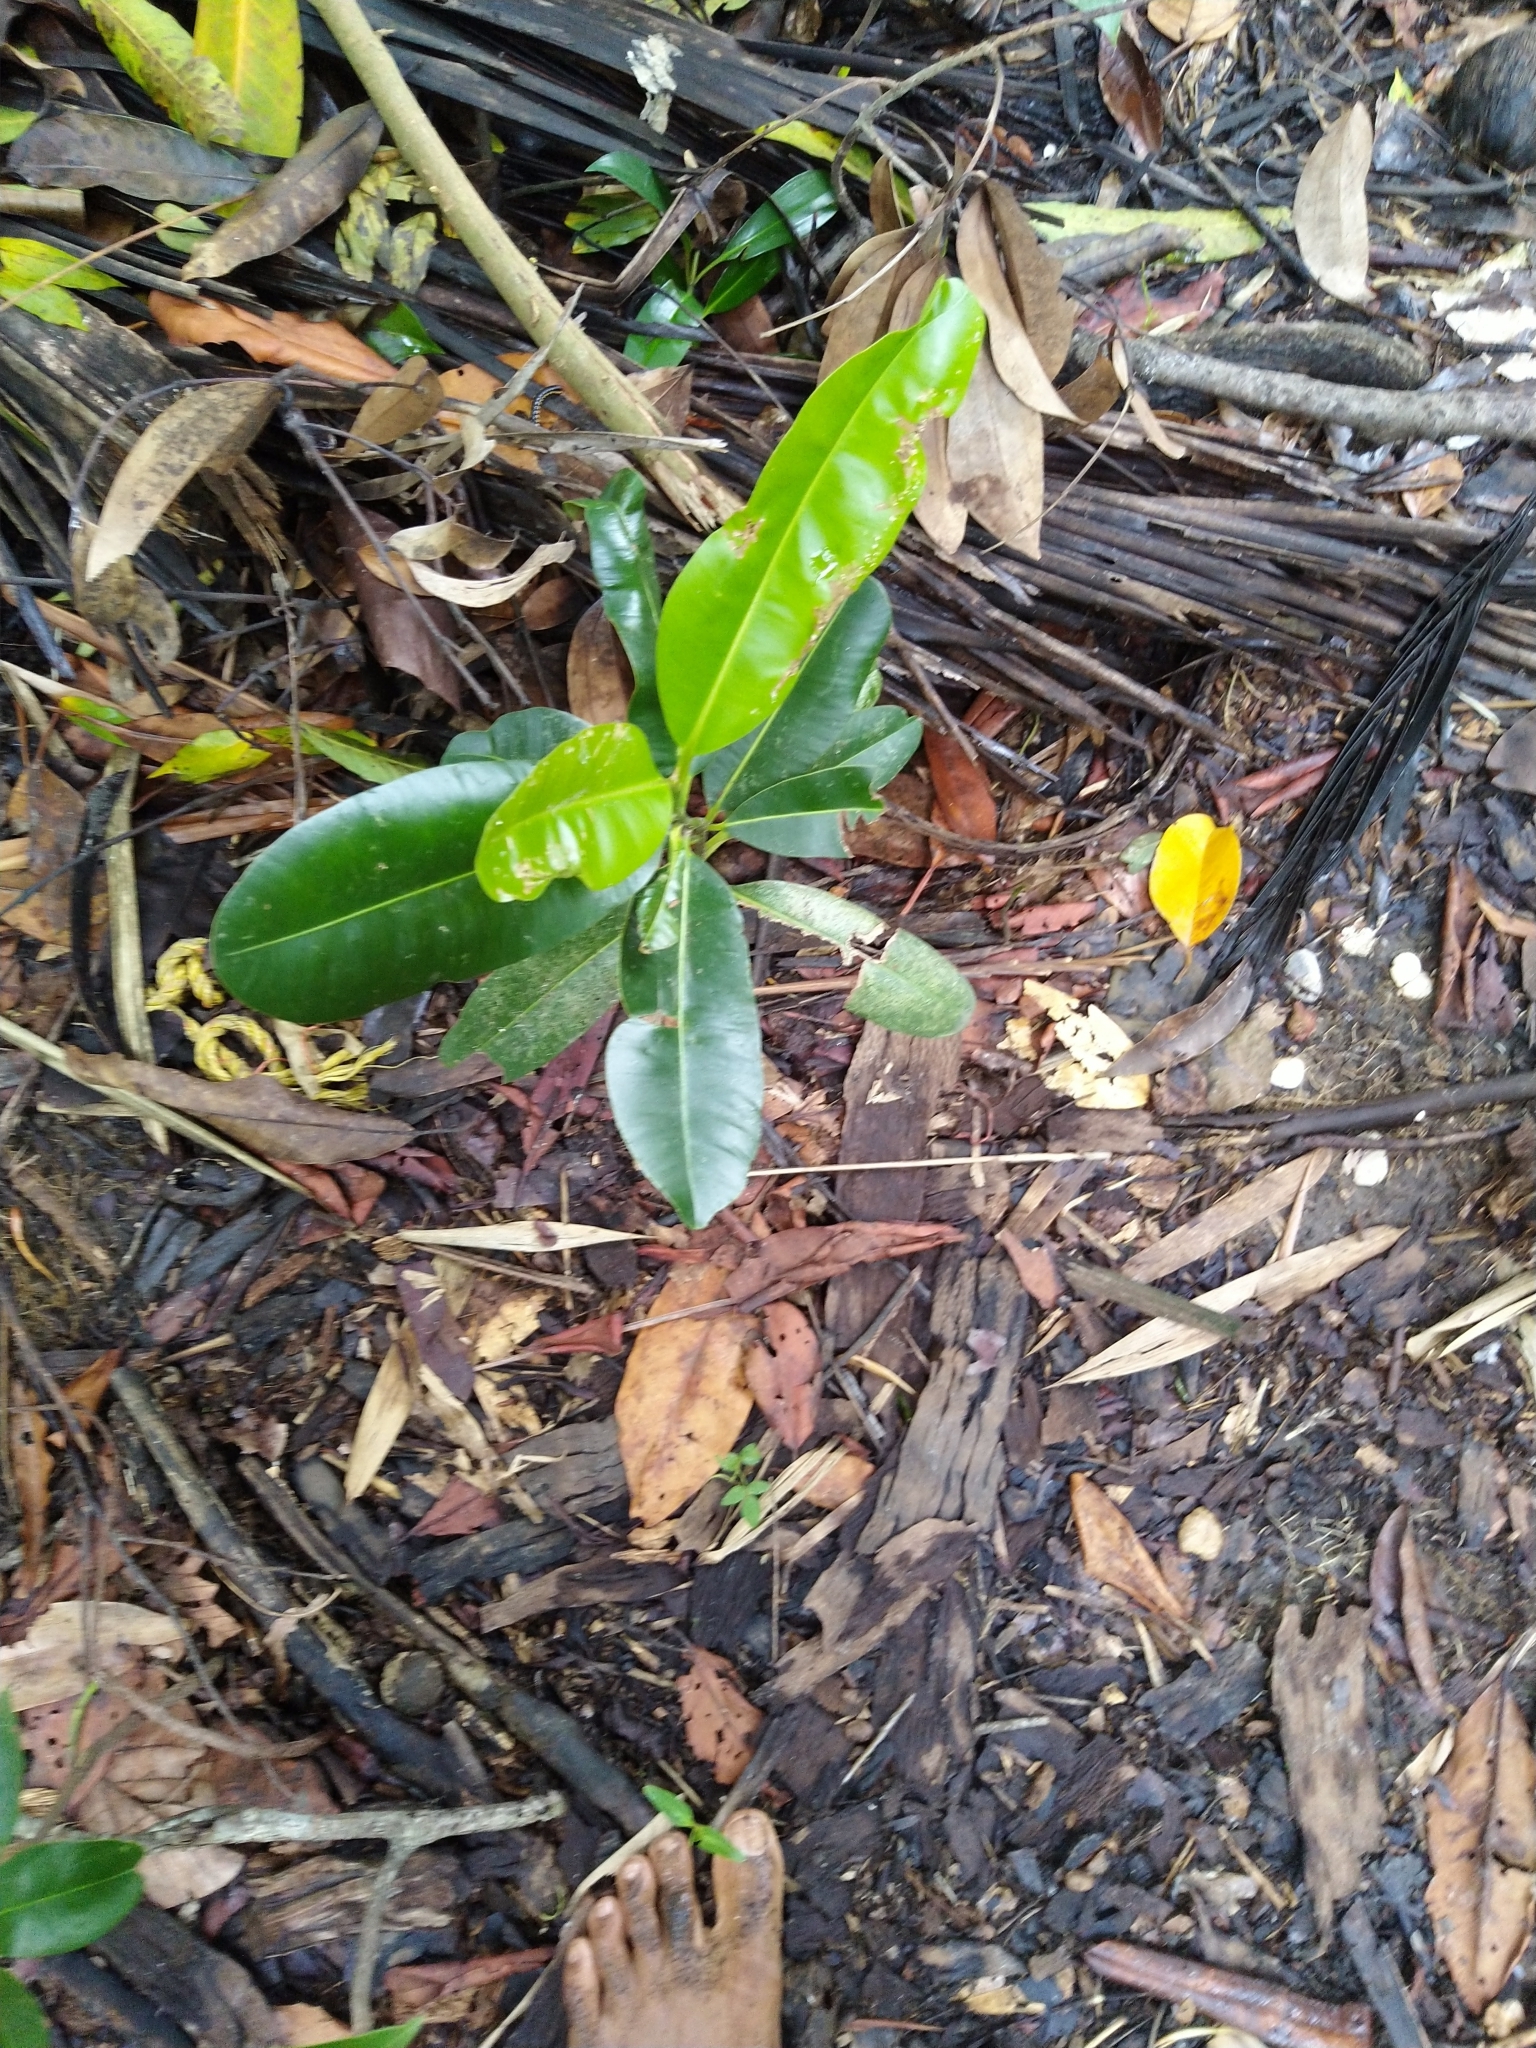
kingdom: Plantae
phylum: Tracheophyta
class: Magnoliopsida
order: Malpighiales
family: Calophyllaceae
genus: Calophyllum
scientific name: Calophyllum inophyllum
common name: Alexandrian laurel
